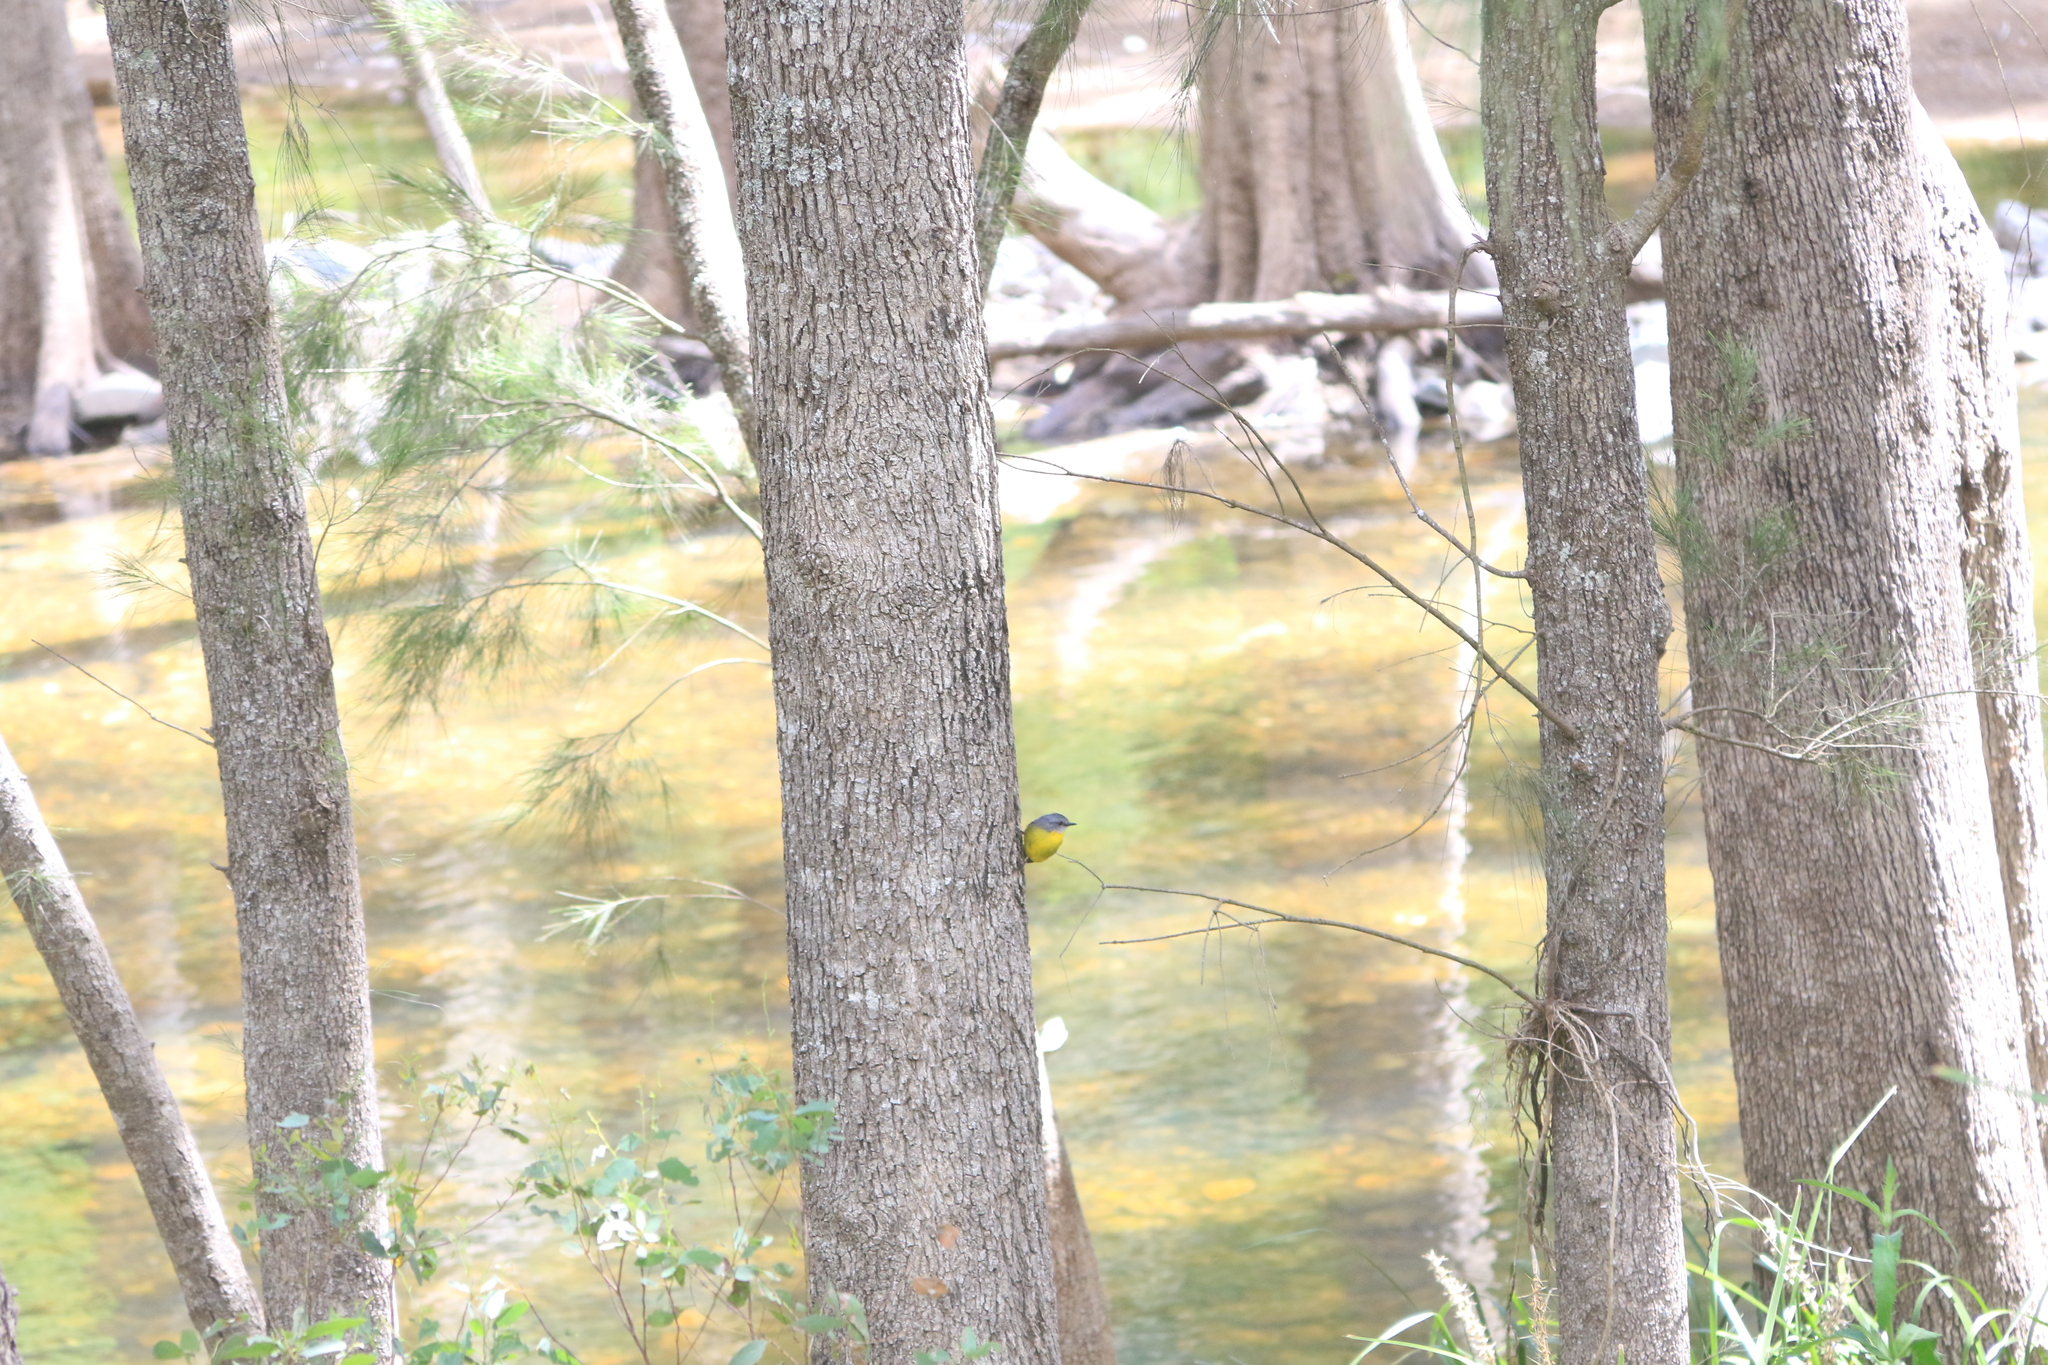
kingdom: Animalia
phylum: Chordata
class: Aves
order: Passeriformes
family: Petroicidae
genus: Eopsaltria
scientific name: Eopsaltria australis
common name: Eastern yellow robin
